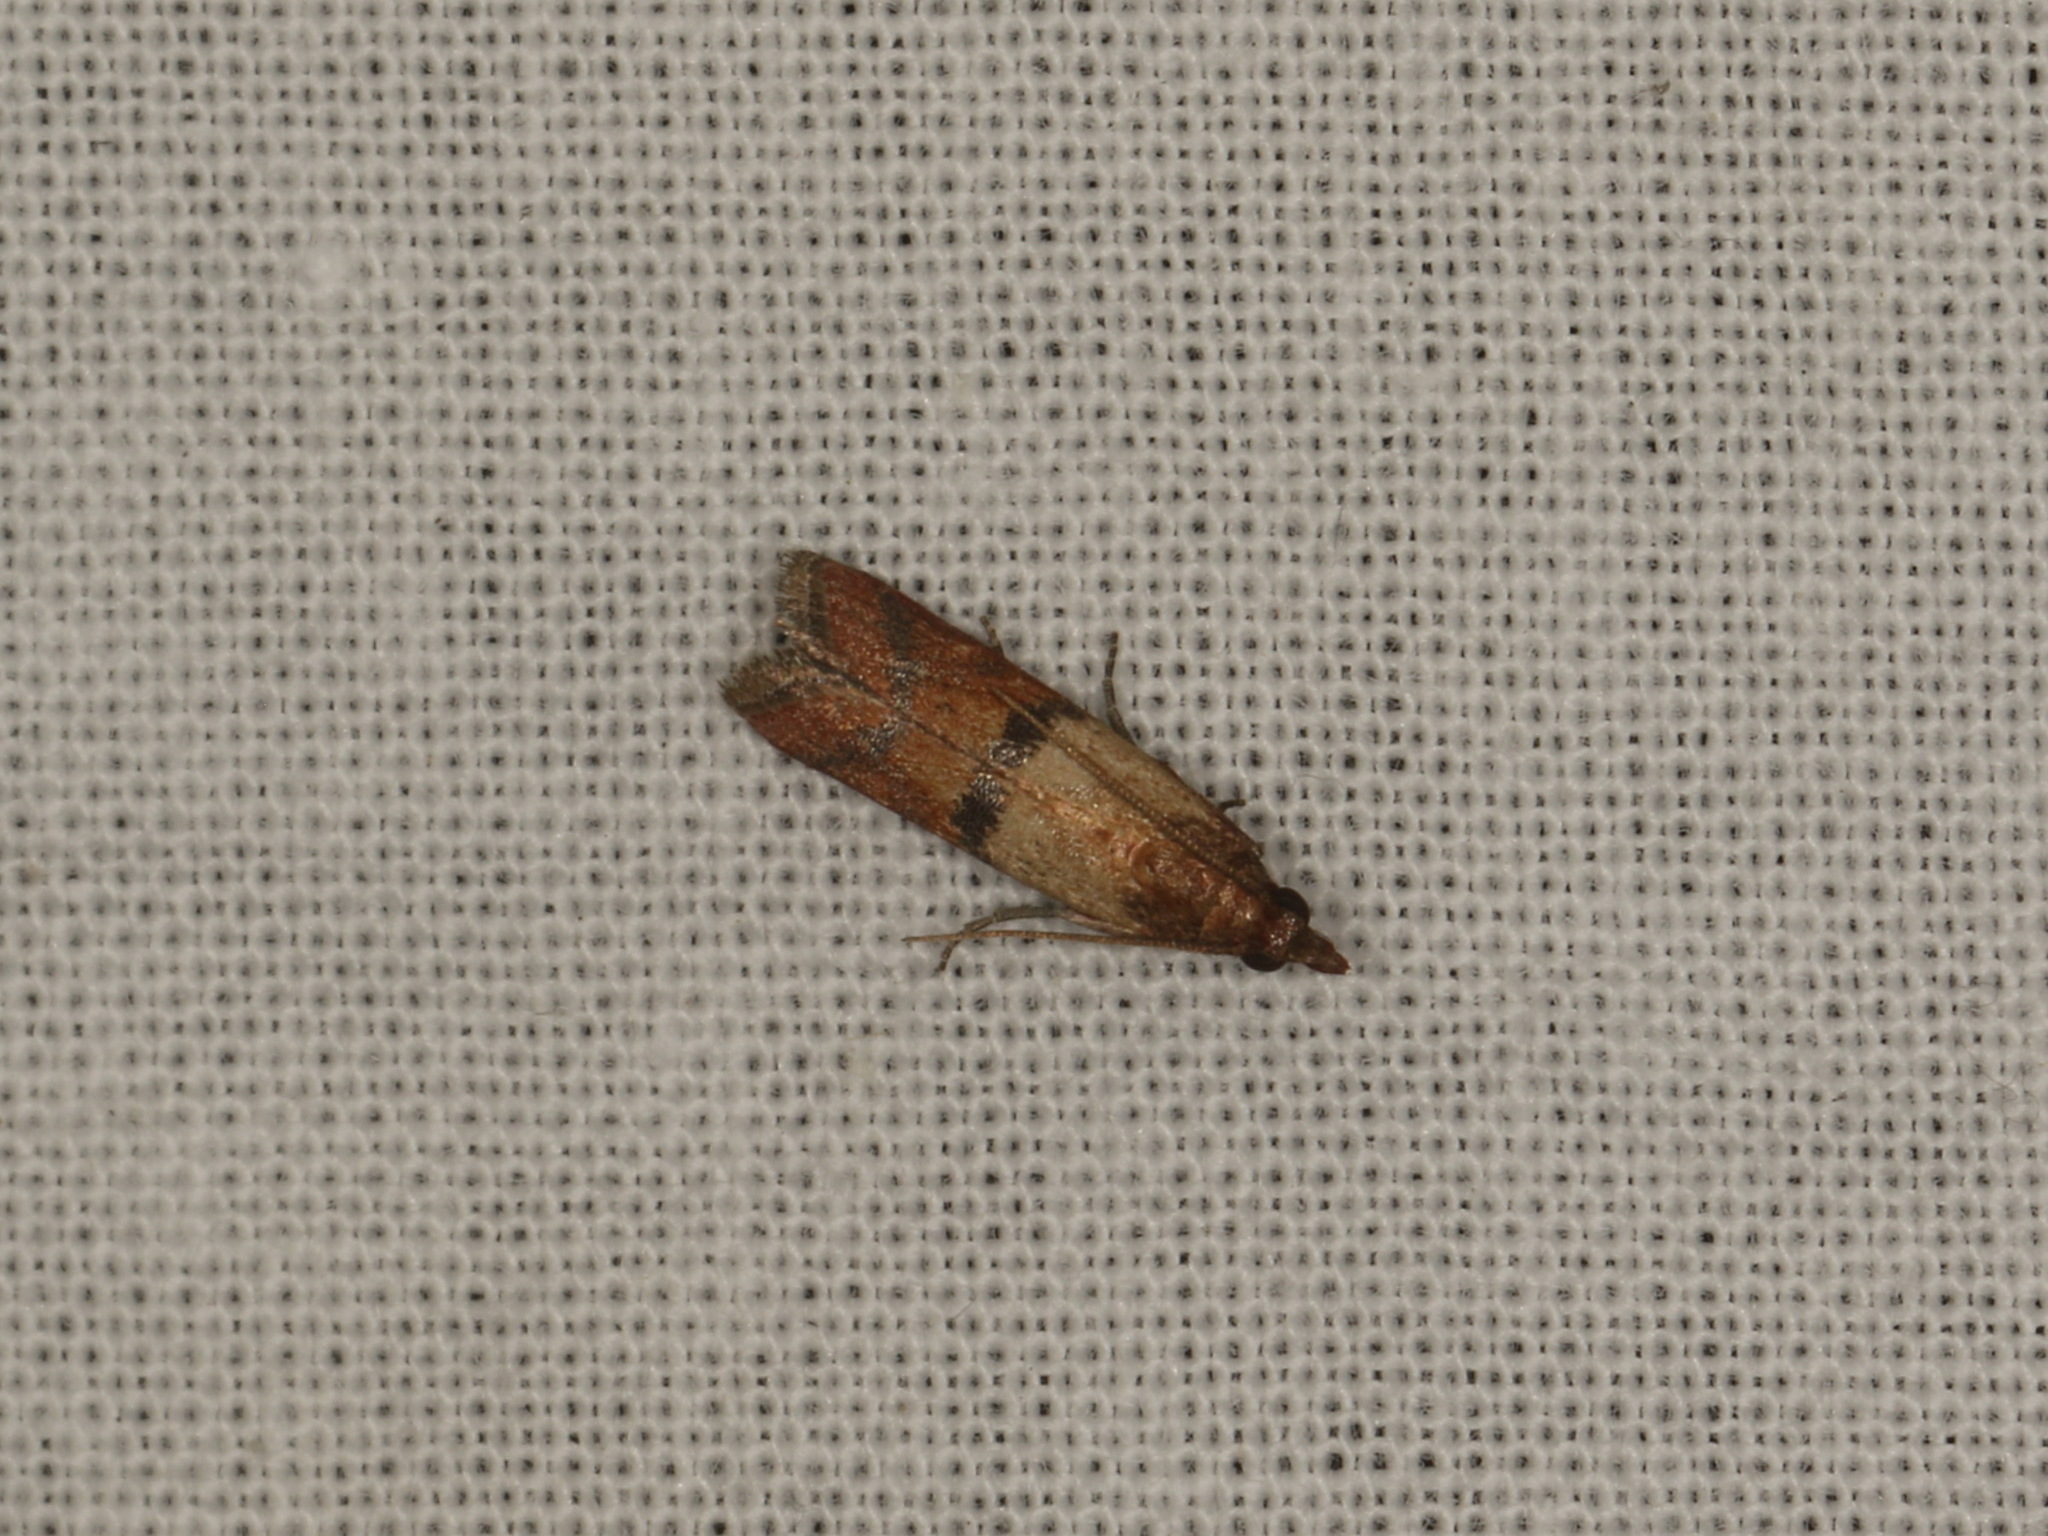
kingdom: Animalia
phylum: Arthropoda
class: Insecta
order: Lepidoptera
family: Pyralidae
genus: Plodia
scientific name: Plodia interpunctella
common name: Indian meal moth
